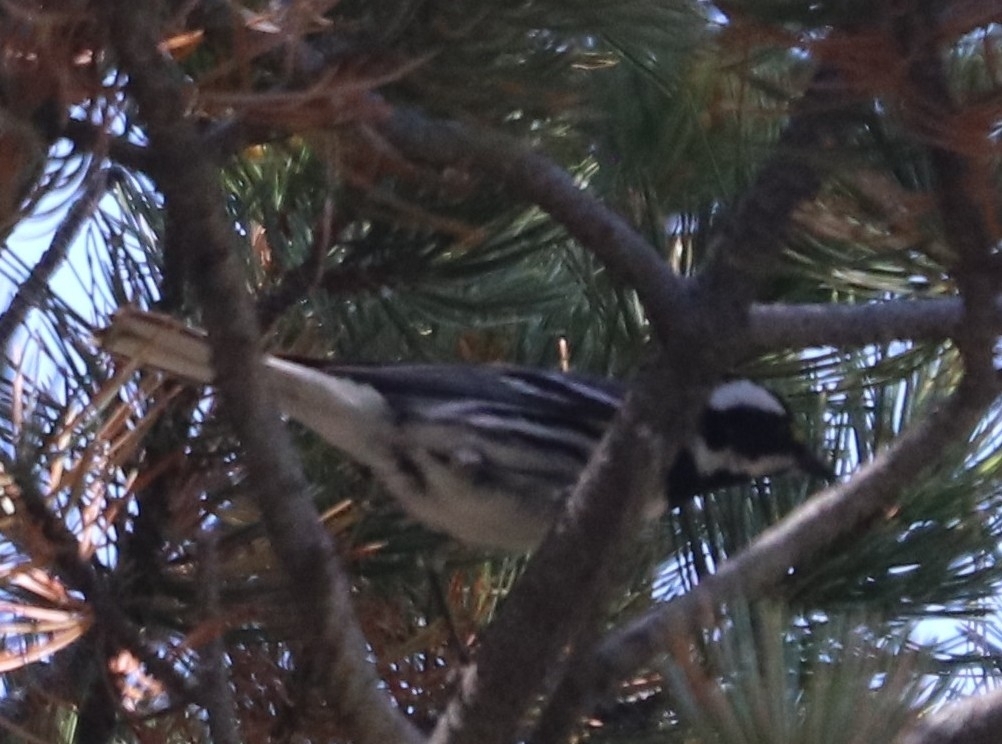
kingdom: Animalia
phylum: Chordata
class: Aves
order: Passeriformes
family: Parulidae
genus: Setophaga
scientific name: Setophaga nigrescens
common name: Black-throated gray warbler
